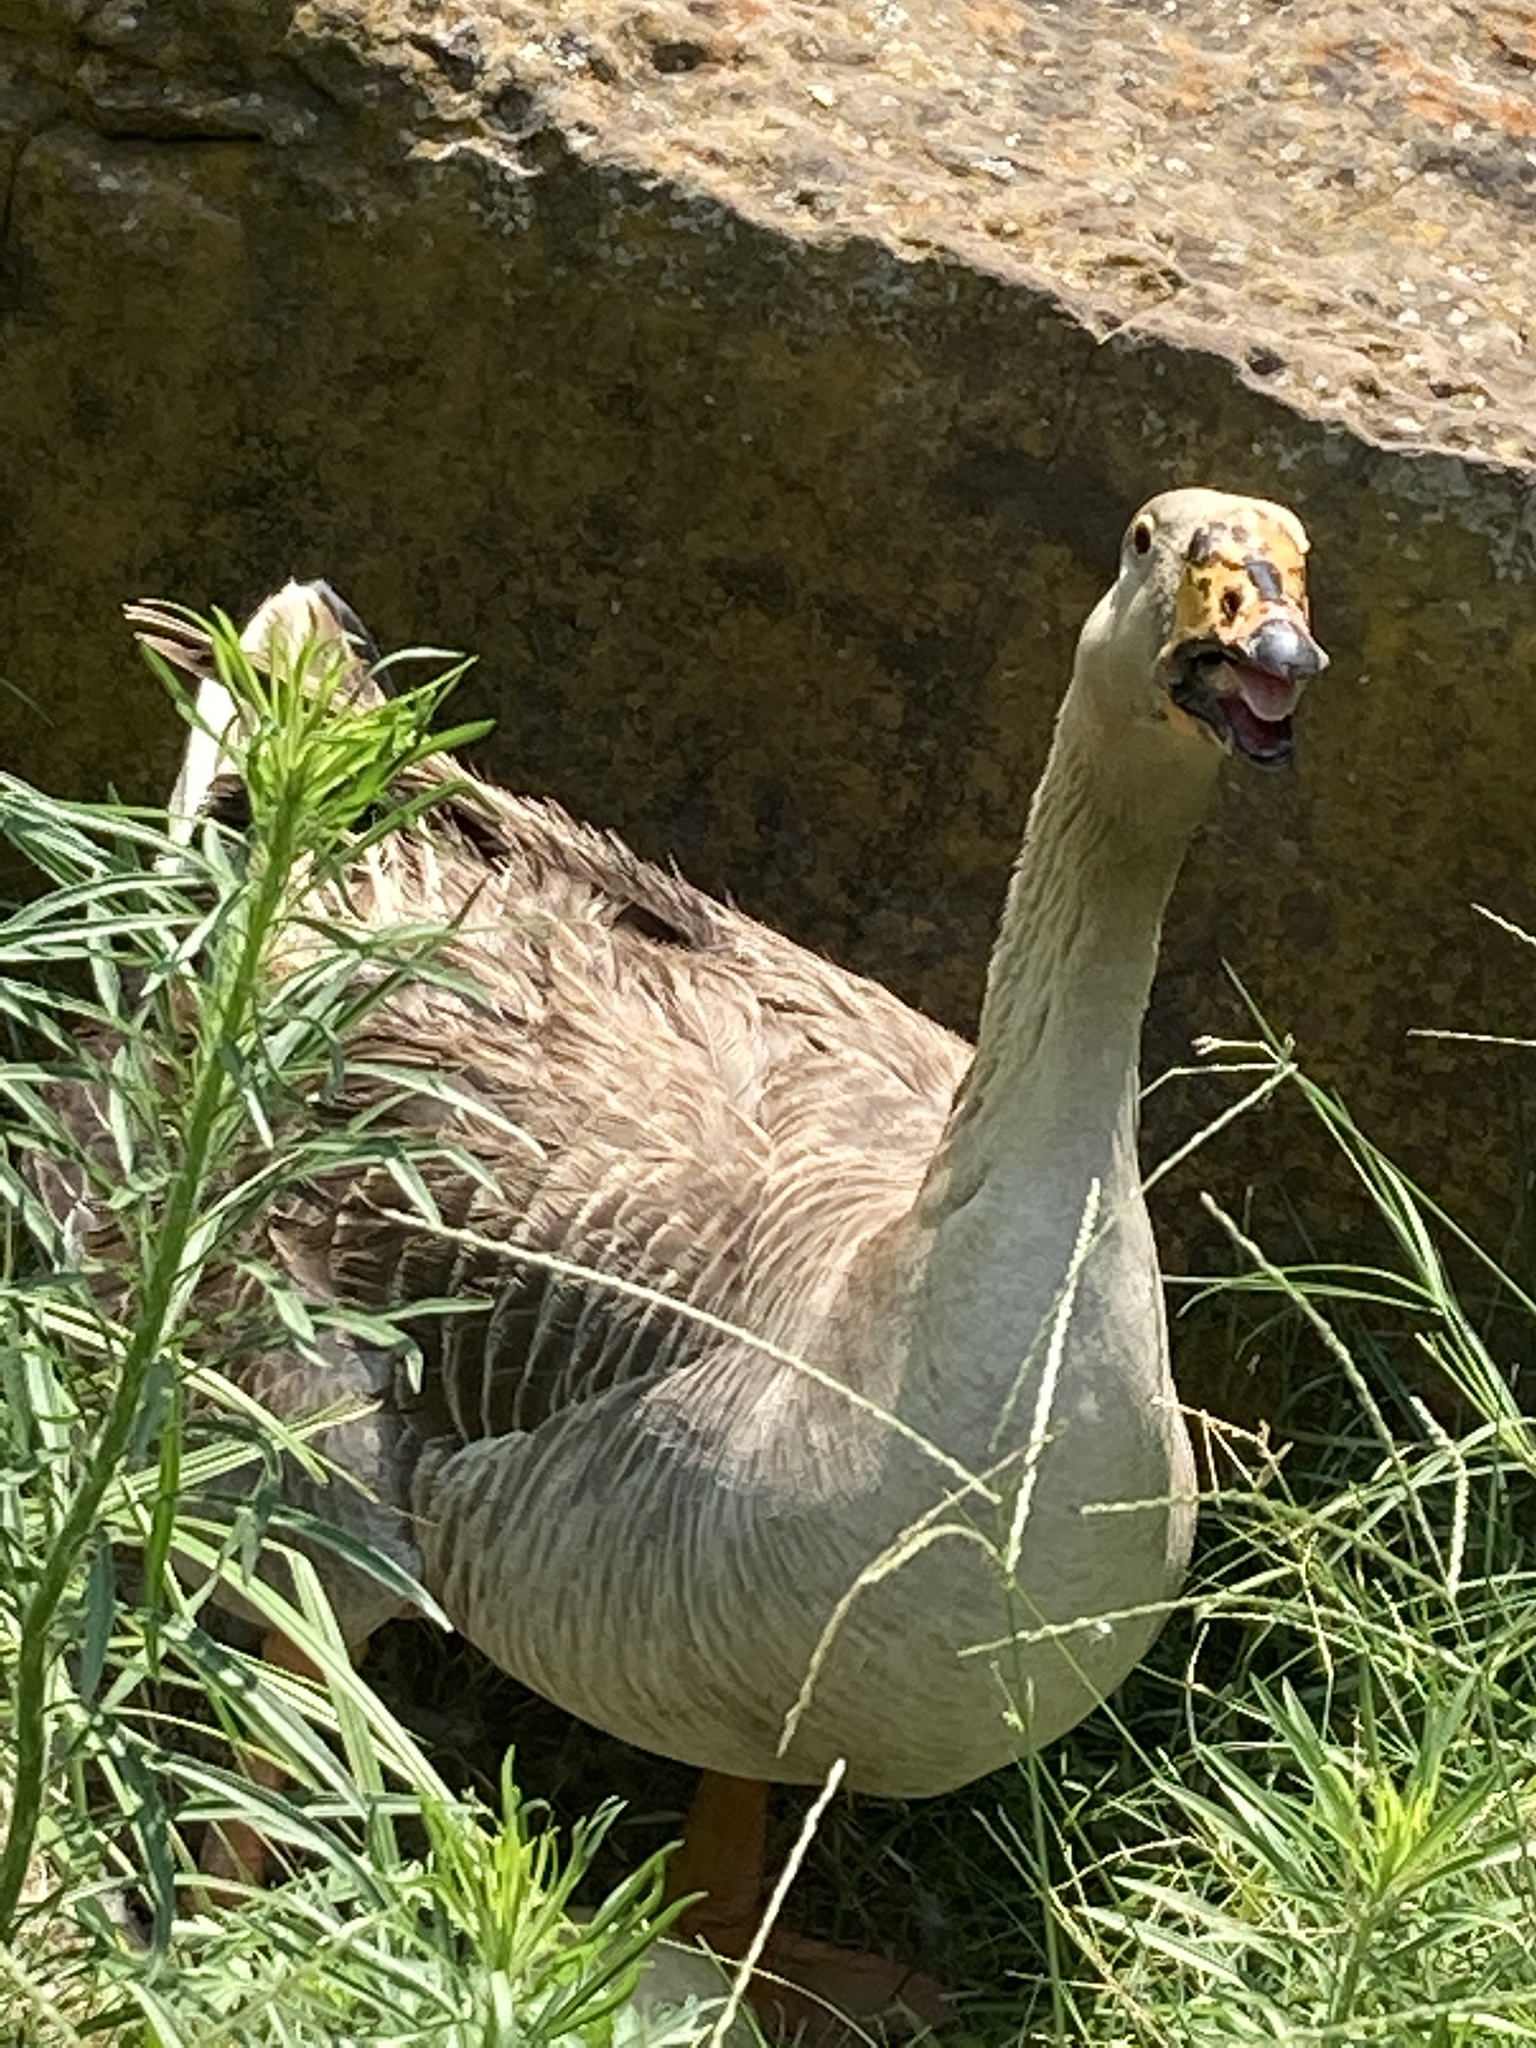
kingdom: Animalia
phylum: Chordata
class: Aves
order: Anseriformes
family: Anatidae
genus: Anser
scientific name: Anser
